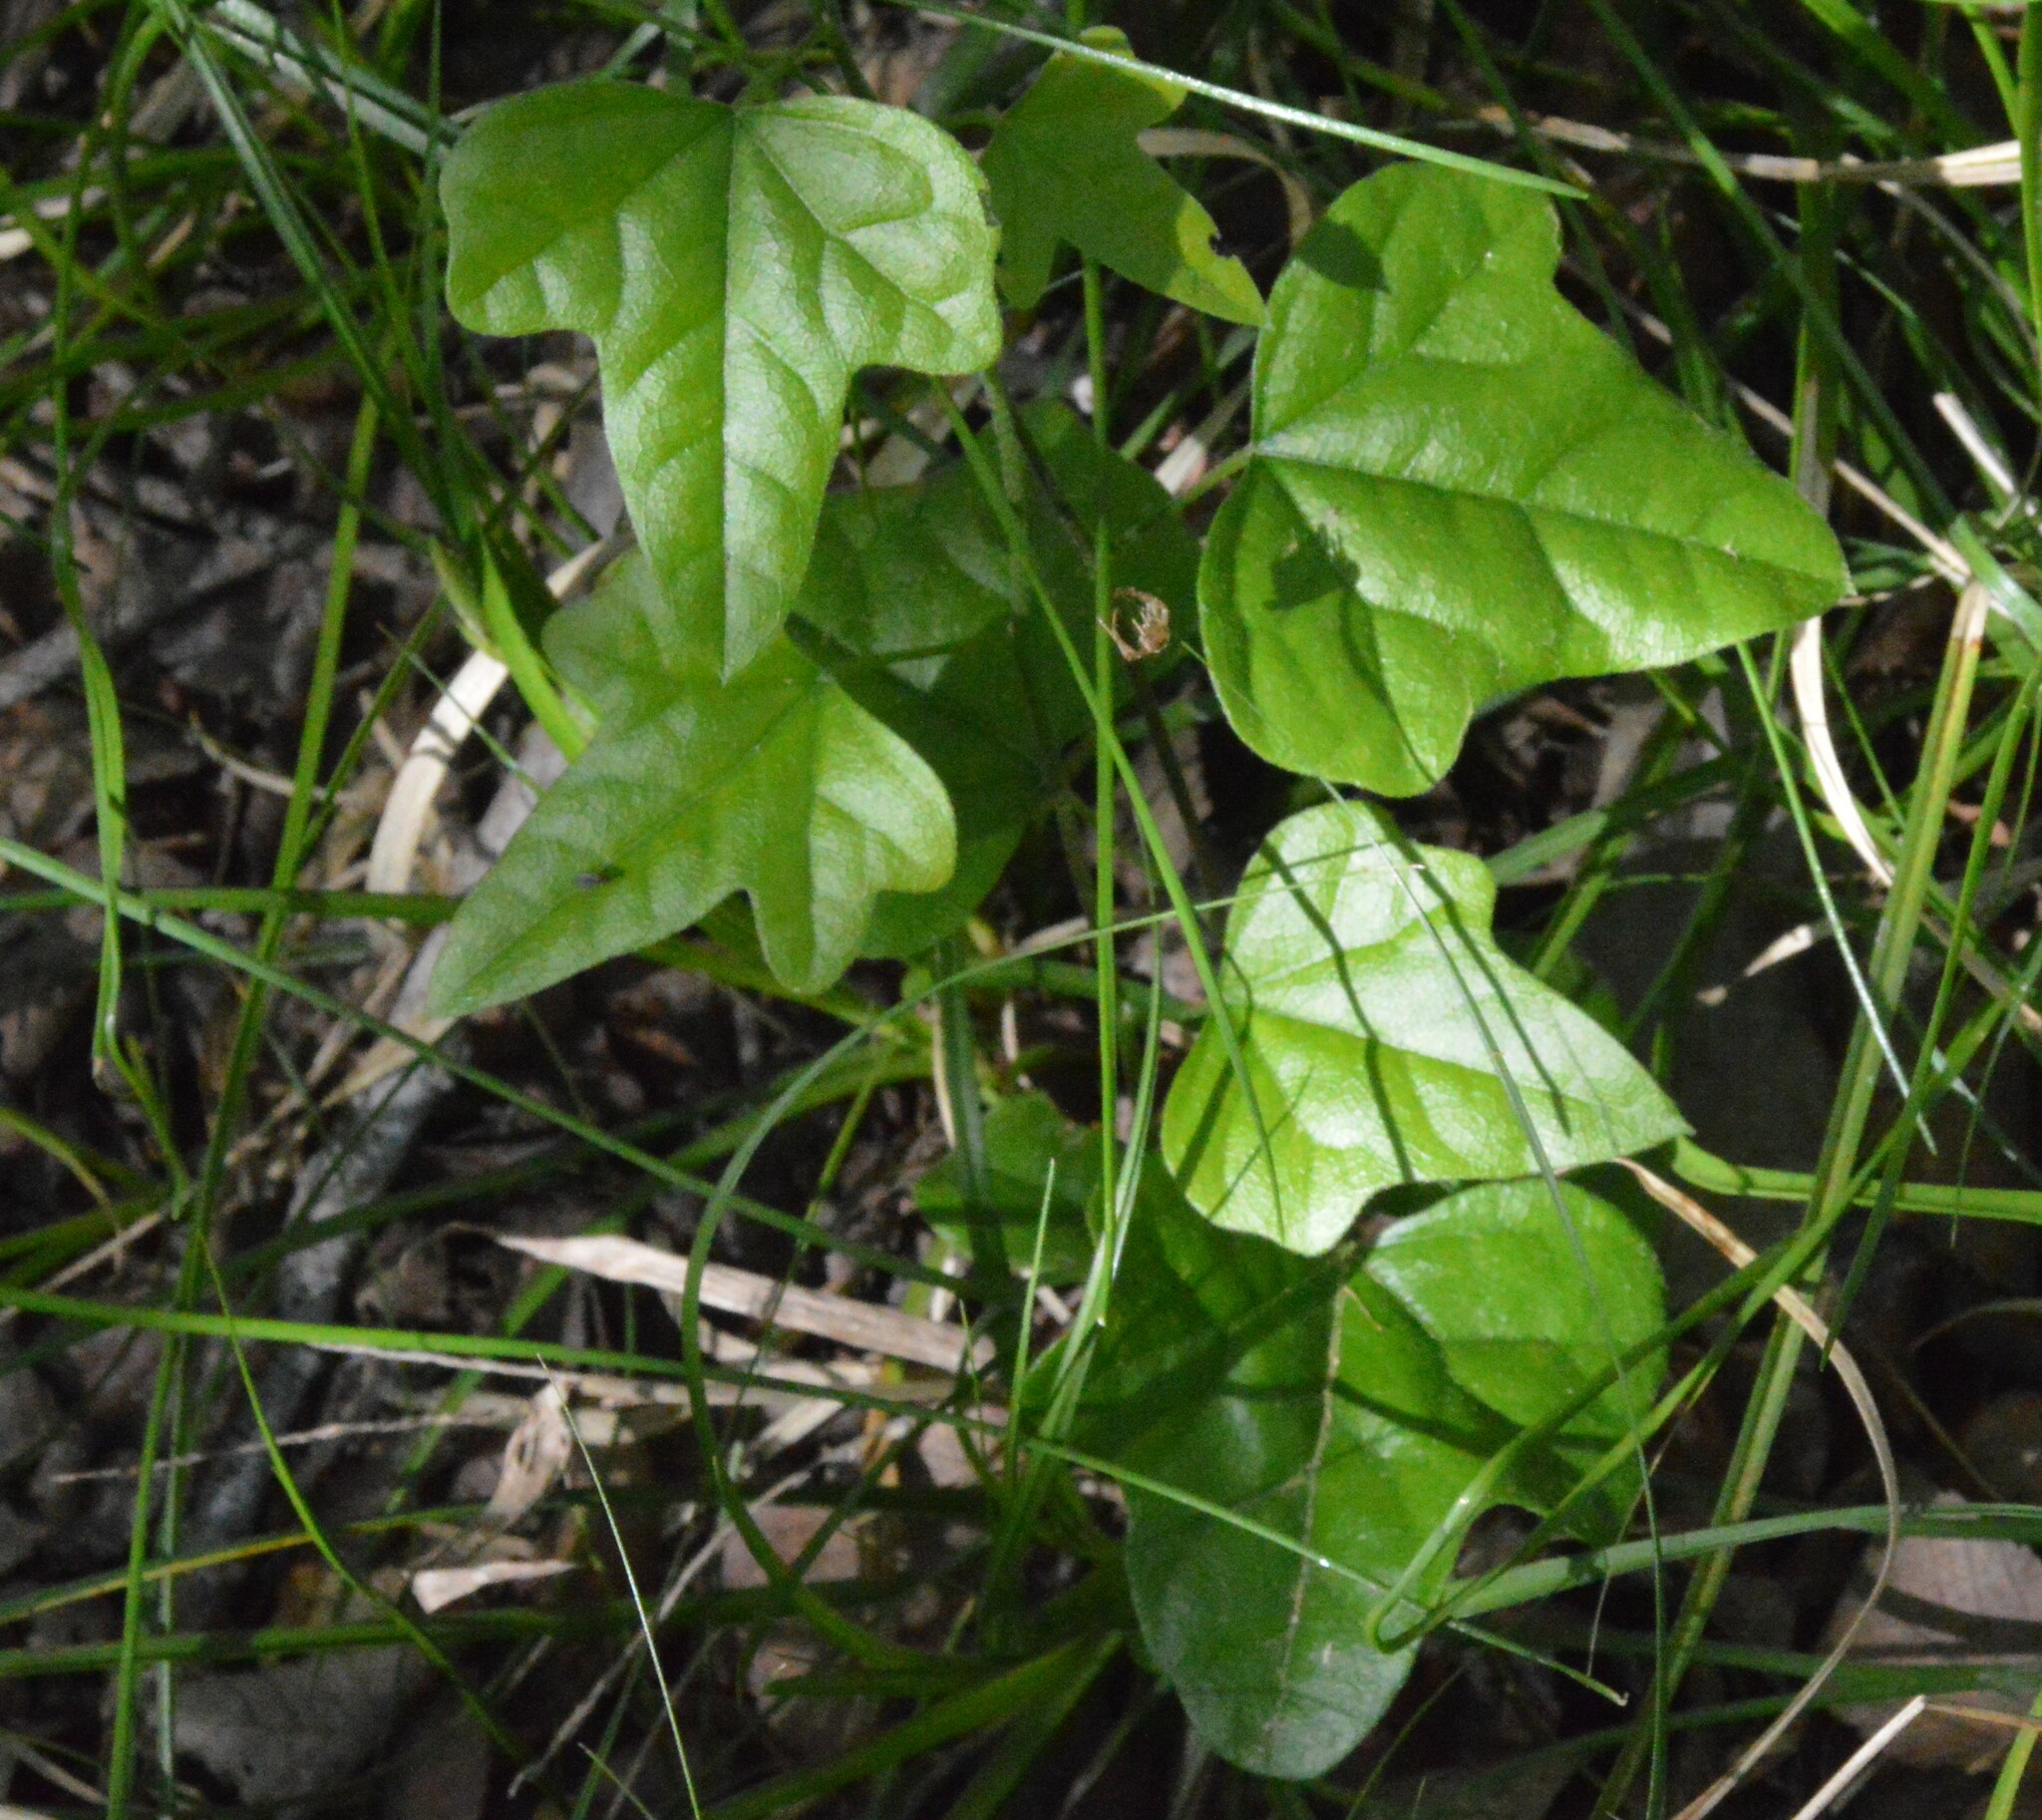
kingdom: Plantae
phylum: Tracheophyta
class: Magnoliopsida
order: Ranunculales
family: Menispermaceae
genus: Cocculus
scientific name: Cocculus carolinus
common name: Carolina moonseed
